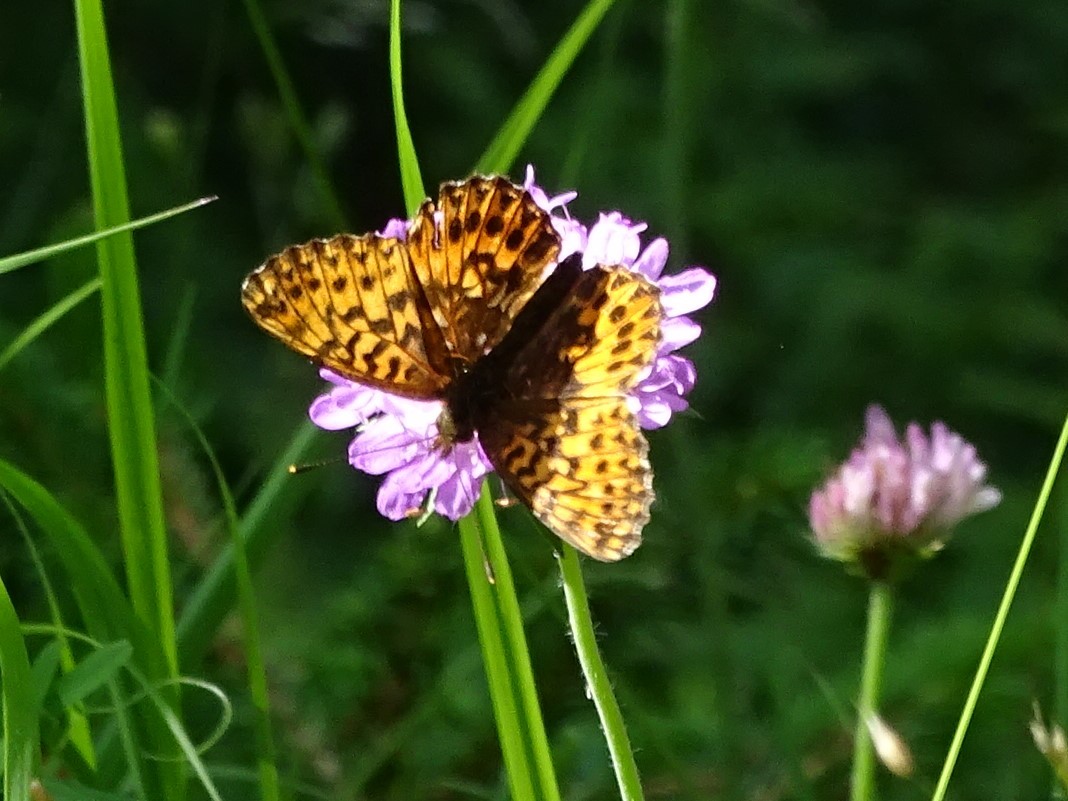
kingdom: Animalia
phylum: Arthropoda
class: Insecta
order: Lepidoptera
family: Nymphalidae
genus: Boloria
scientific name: Boloria titania
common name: Titania's fritillary
